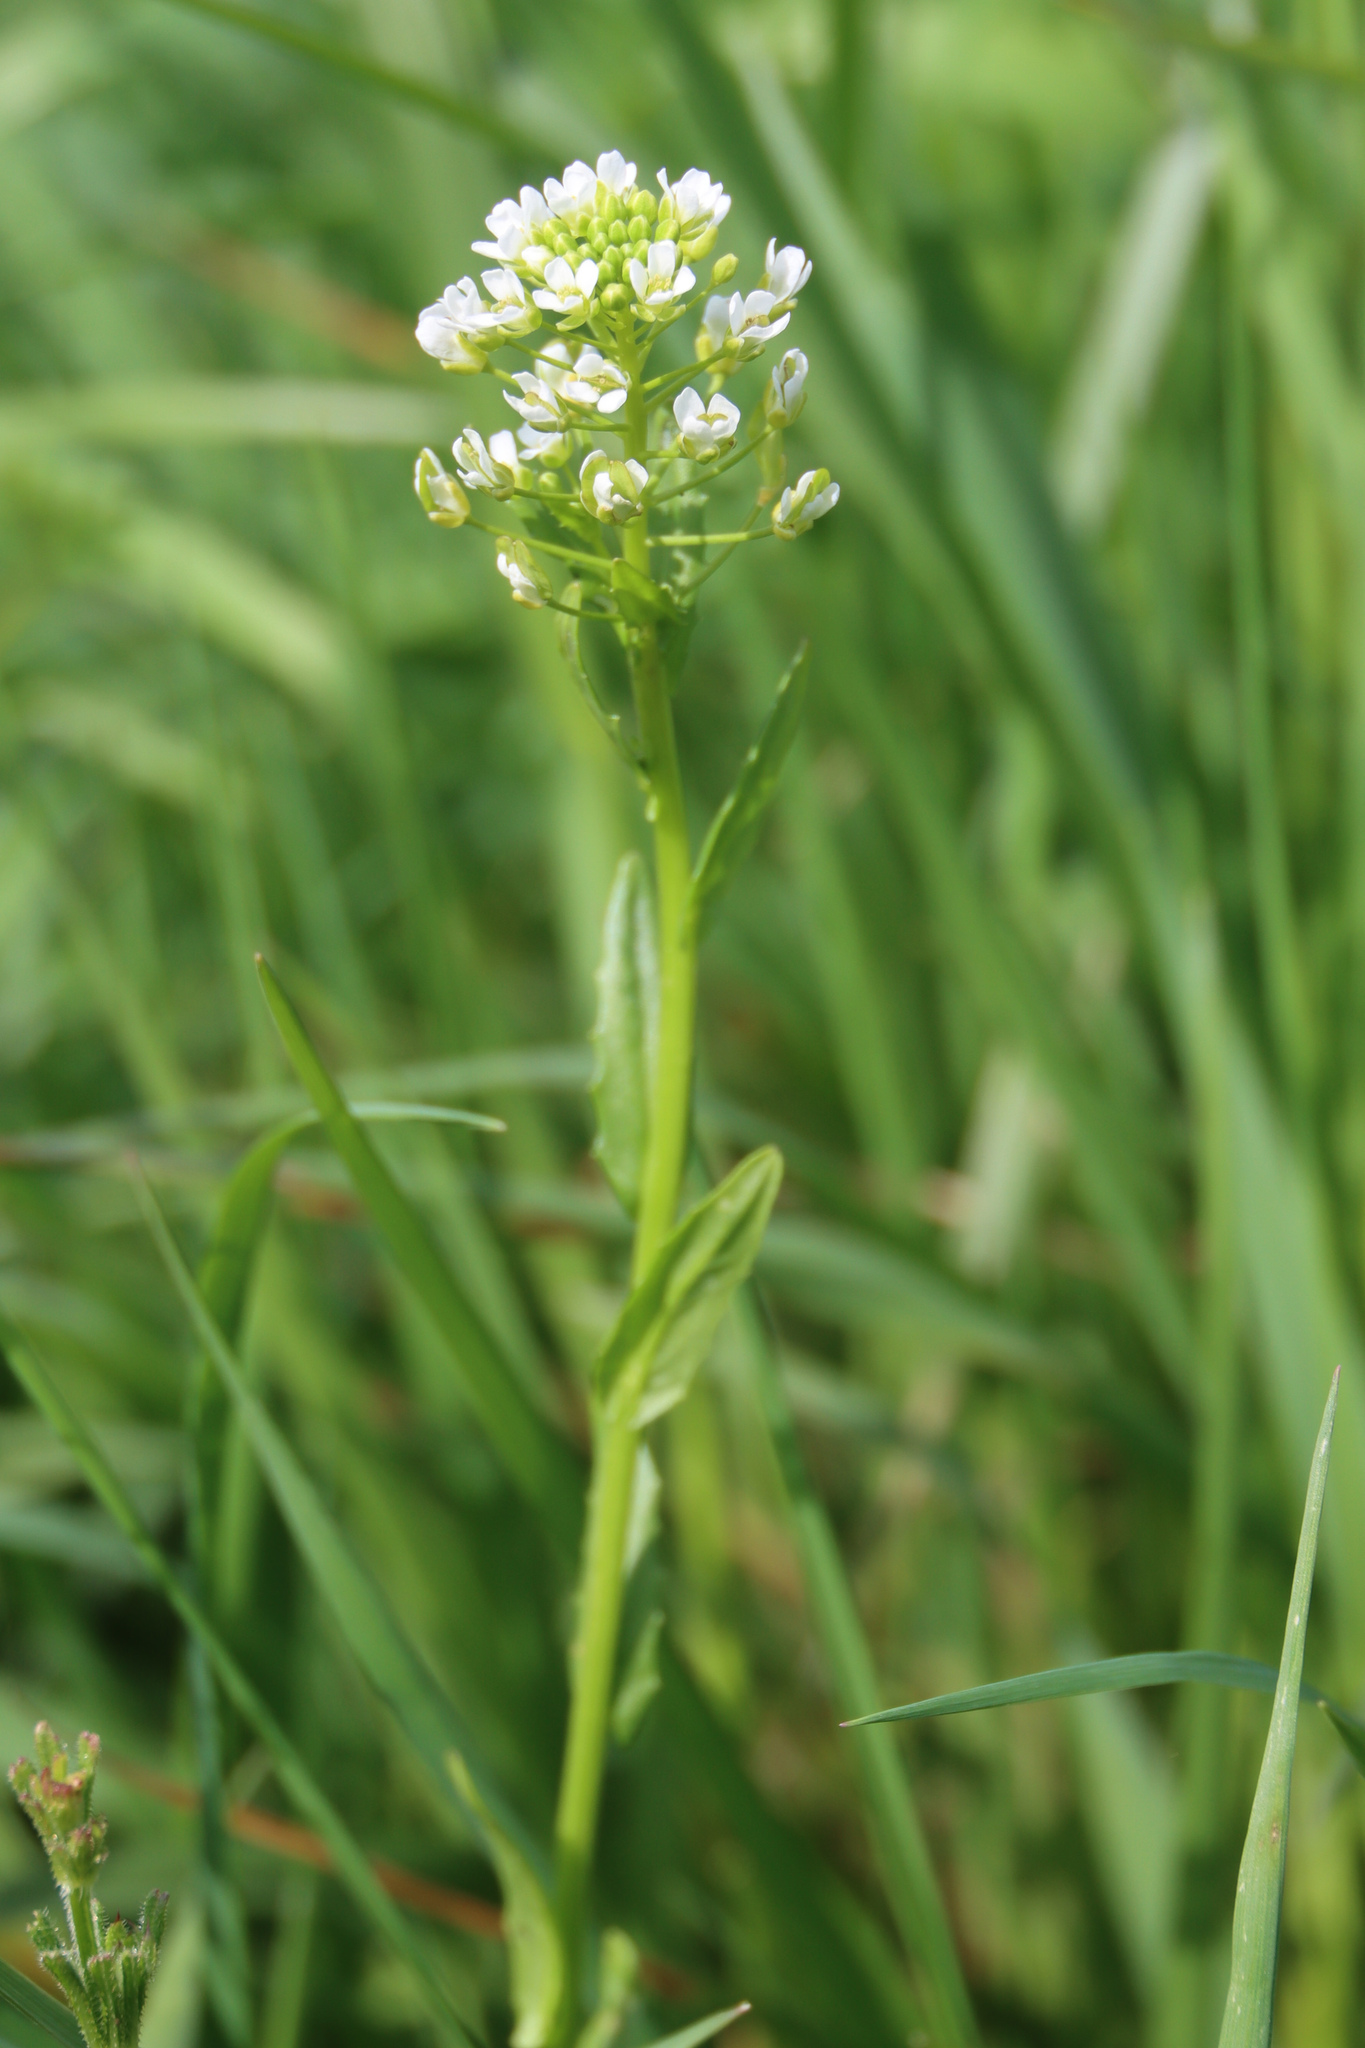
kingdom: Plantae
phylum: Tracheophyta
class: Magnoliopsida
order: Brassicales
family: Brassicaceae
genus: Thlaspi
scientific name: Thlaspi arvense
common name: Field pennycress
